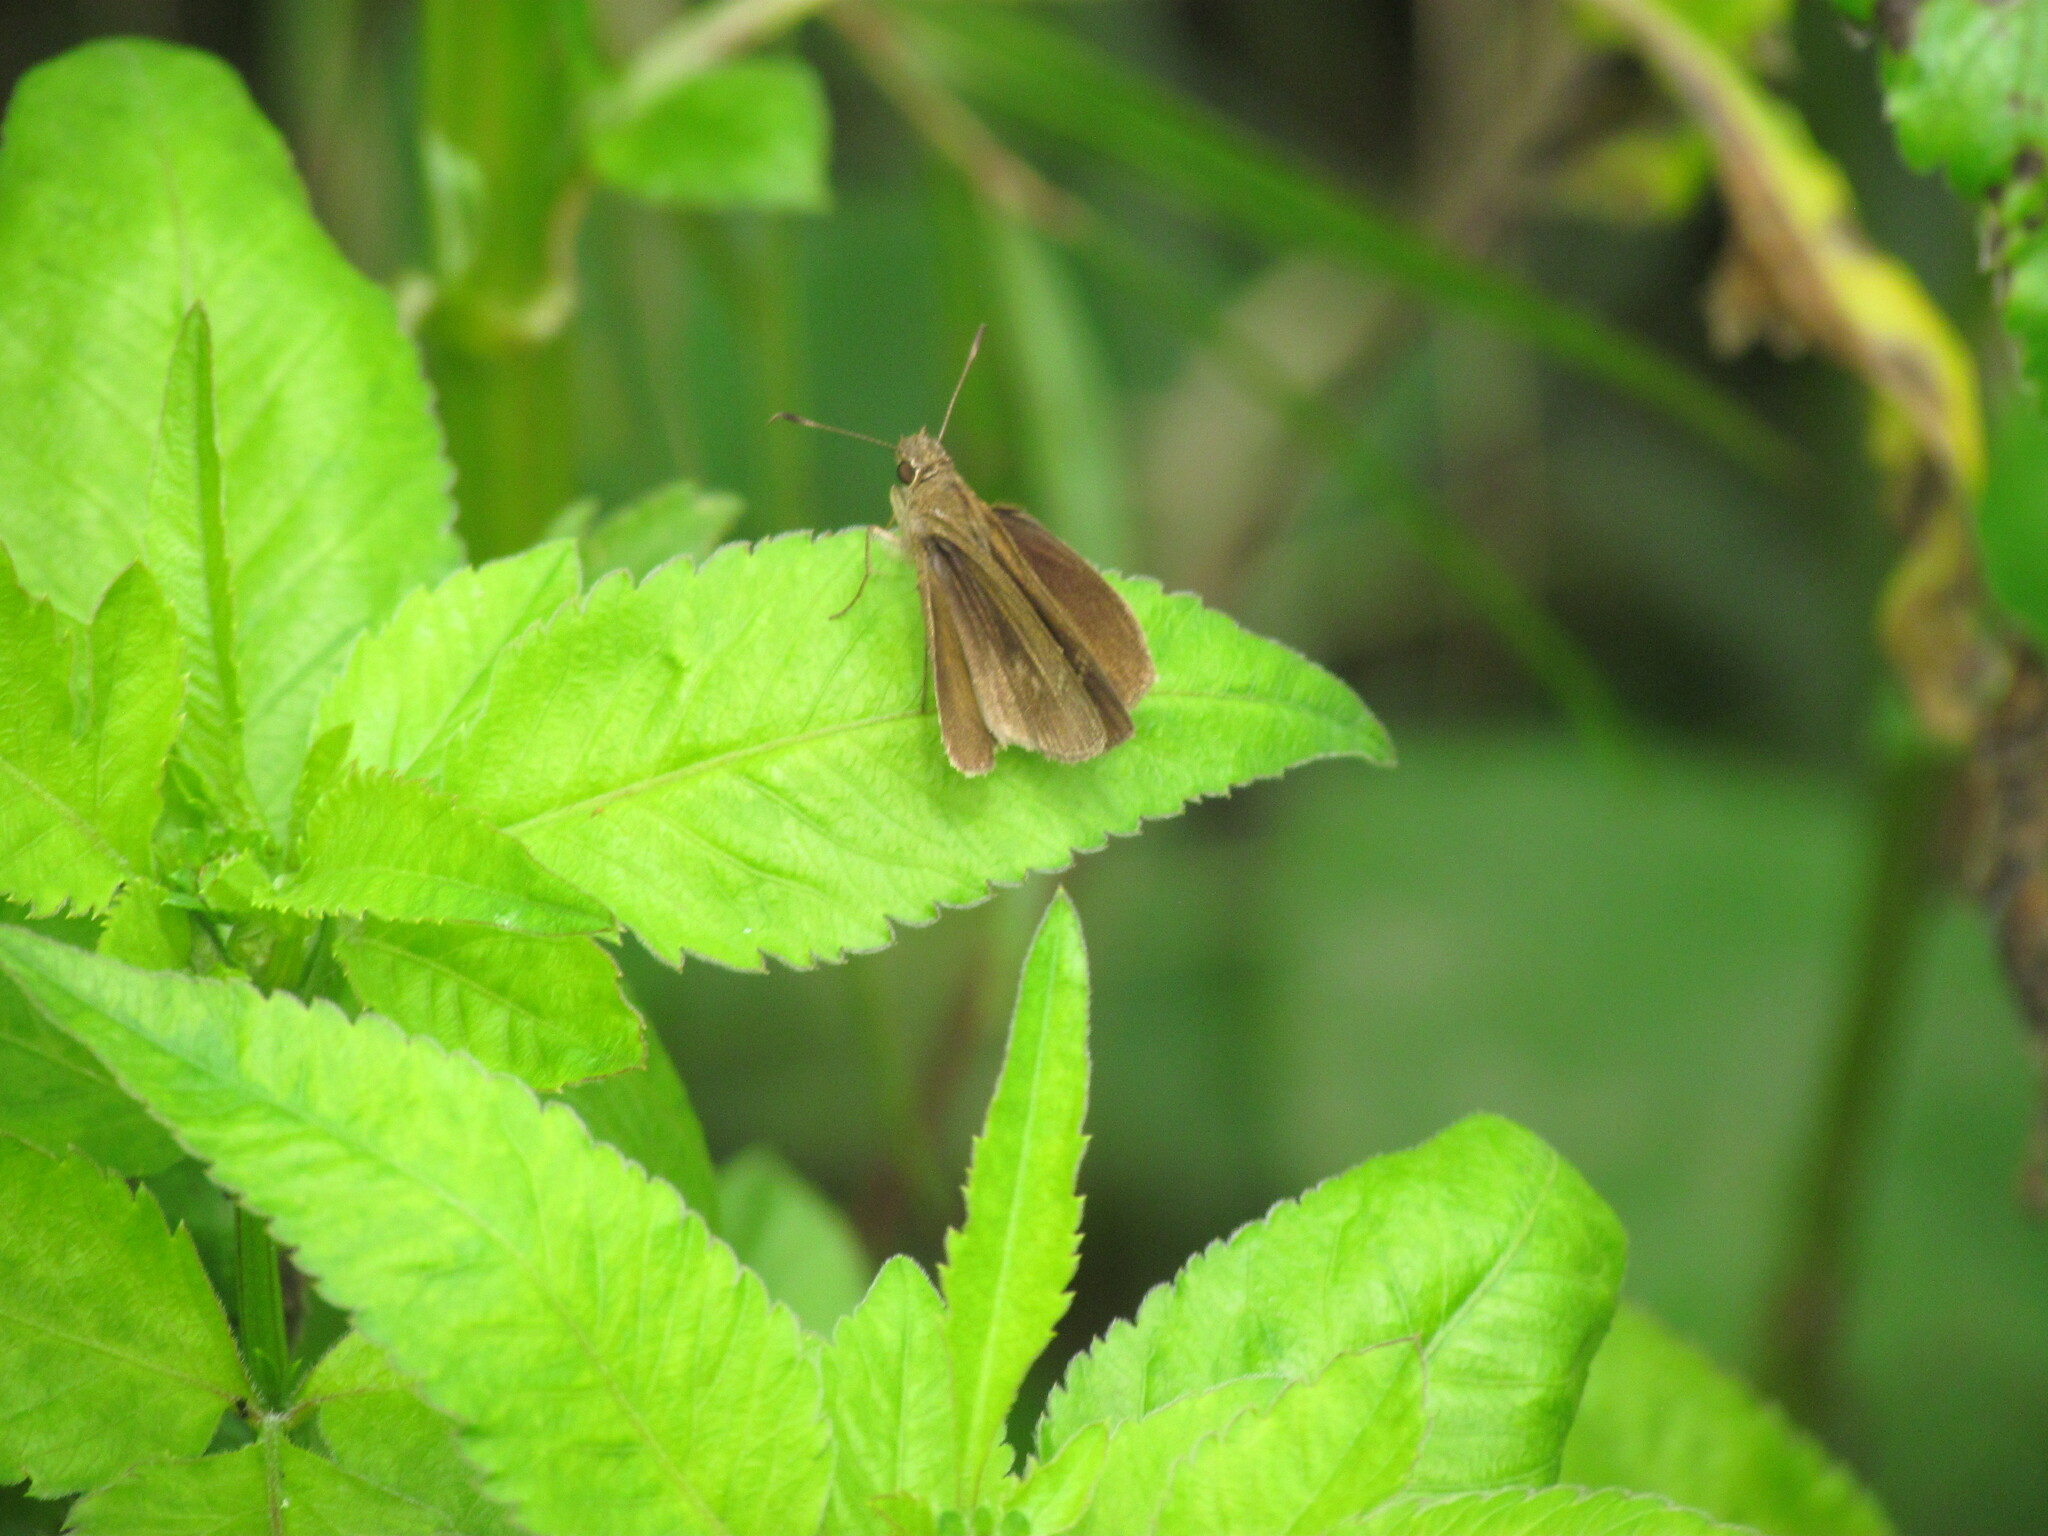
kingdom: Animalia
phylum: Arthropoda
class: Insecta
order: Lepidoptera
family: Hesperiidae
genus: Cymaenes
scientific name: Cymaenes gisca
